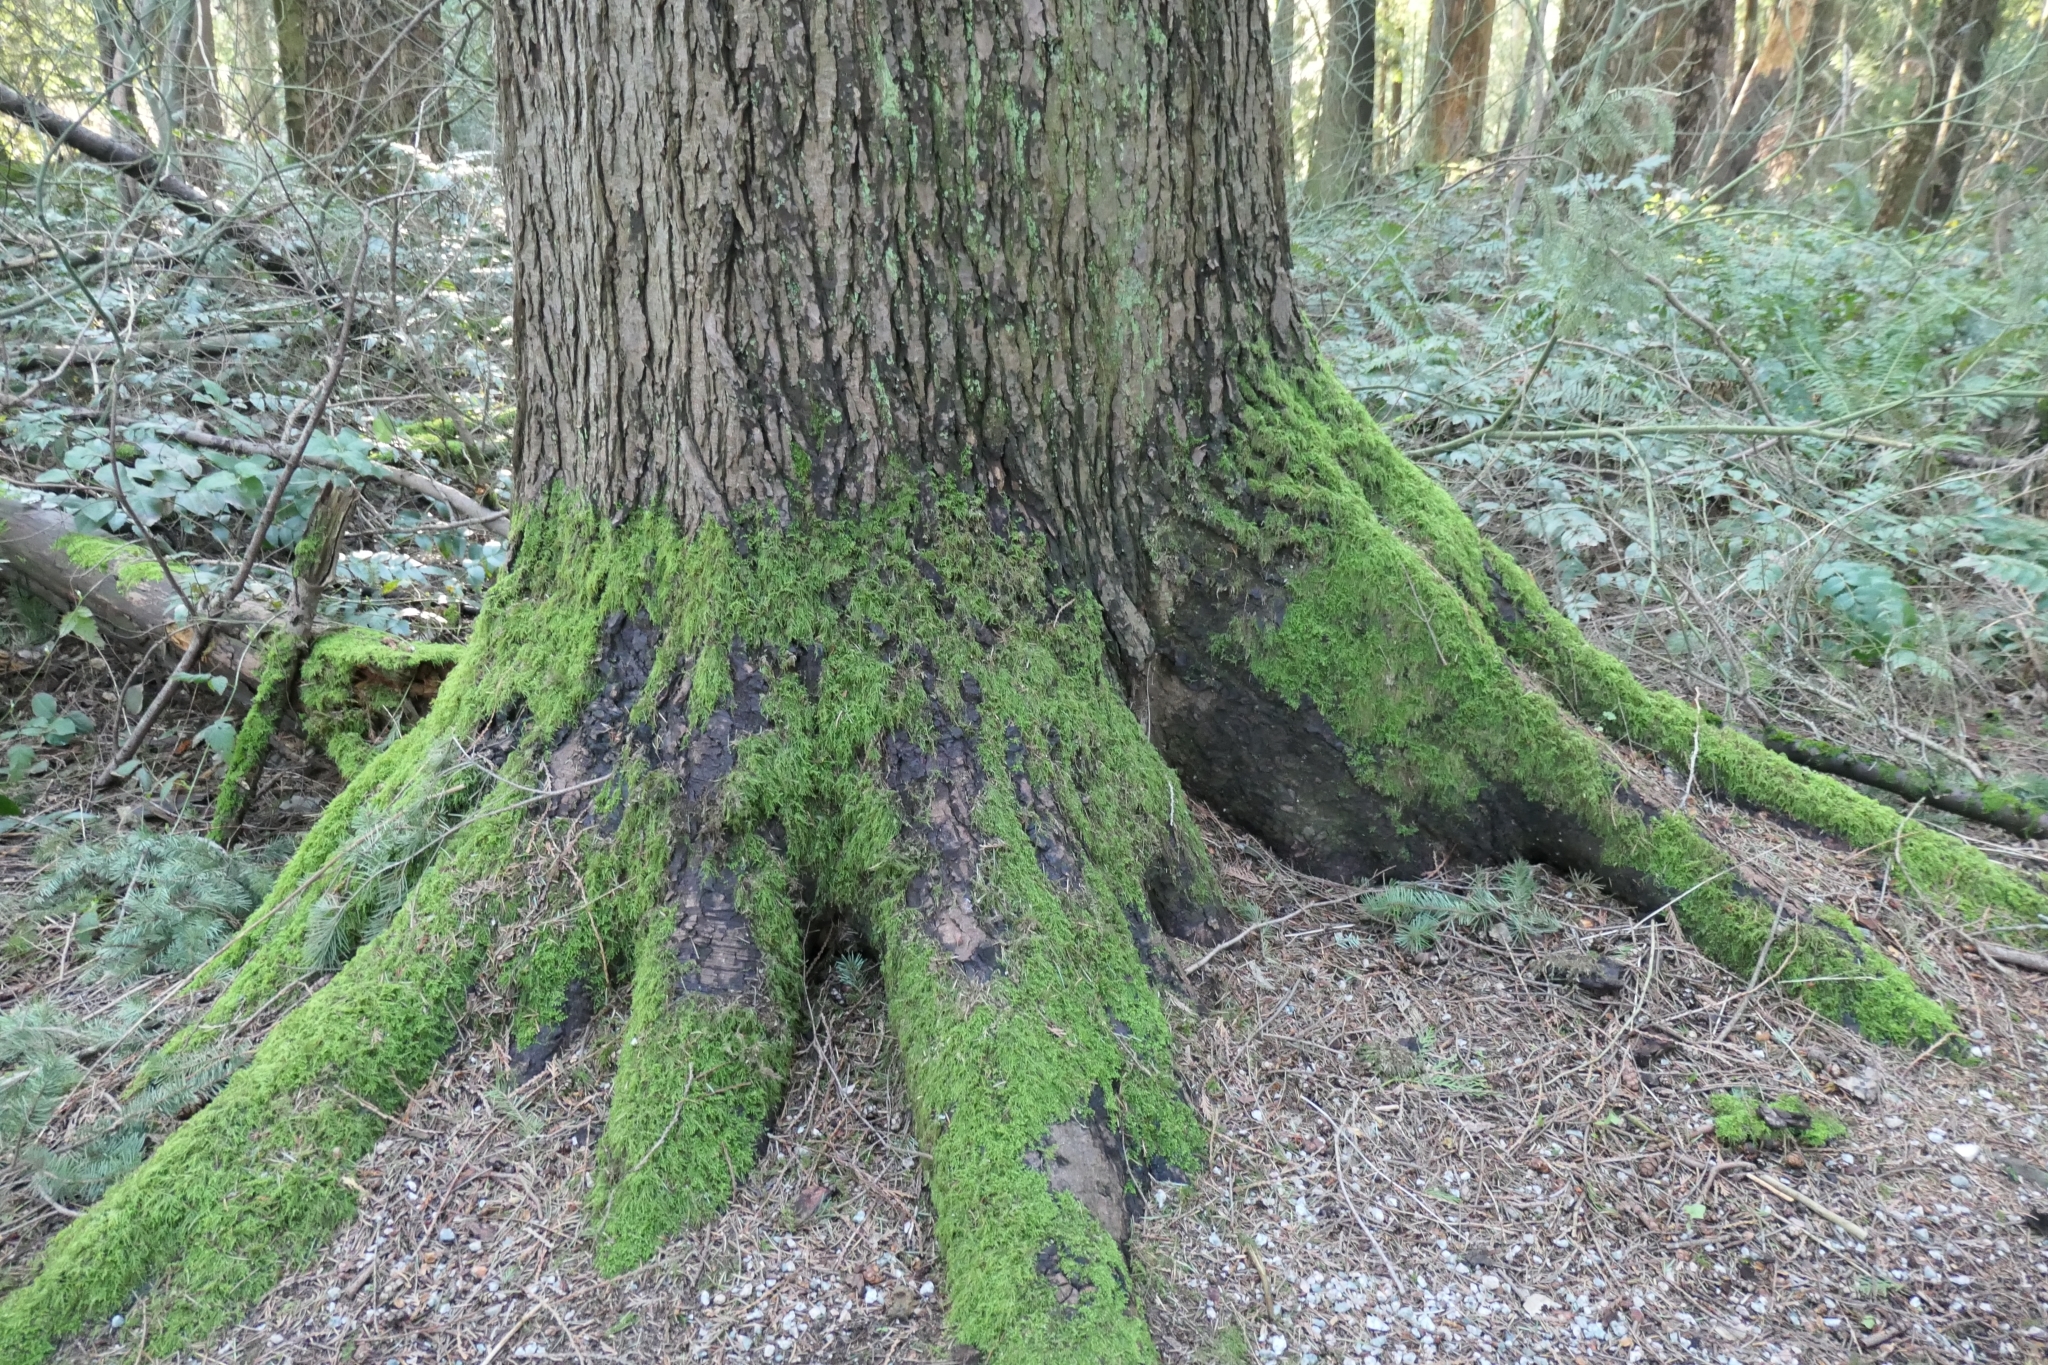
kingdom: Plantae
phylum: Bryophyta
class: Bryopsida
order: Hypnales
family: Lembophyllaceae
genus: Pseudisothecium
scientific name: Pseudisothecium stoloniferum
